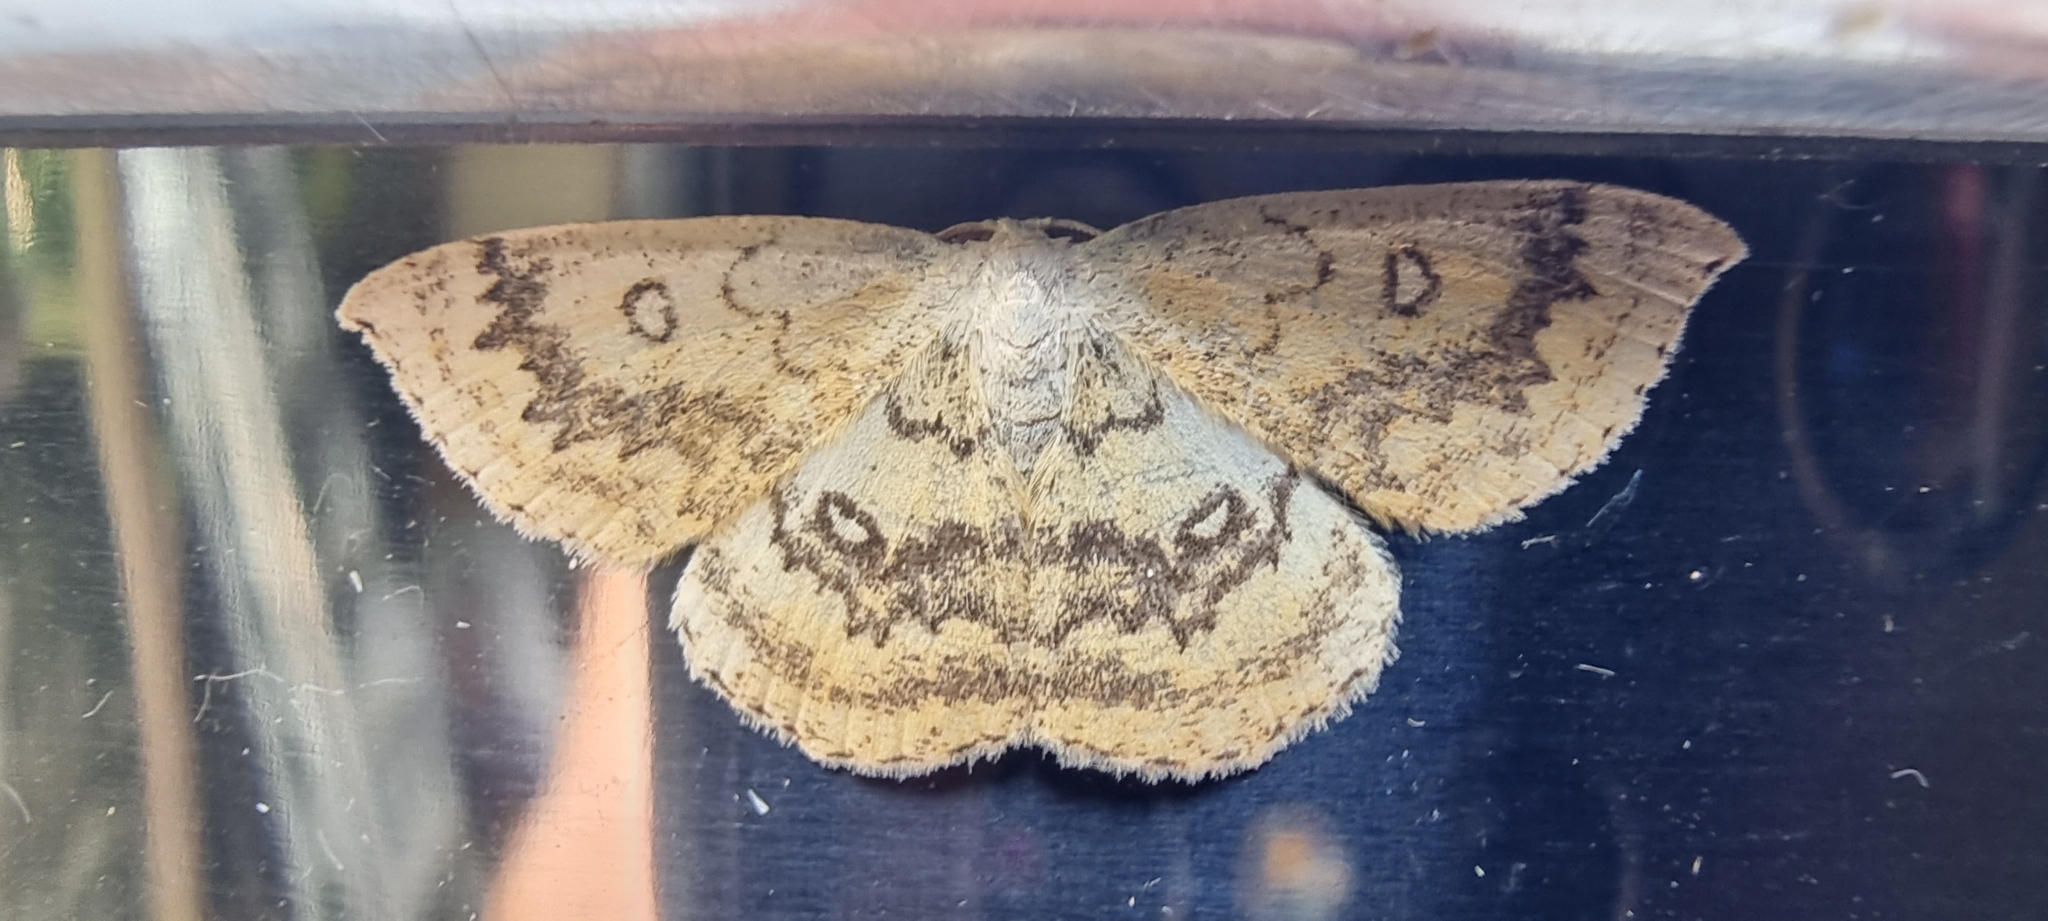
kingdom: Animalia
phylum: Arthropoda
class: Insecta
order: Lepidoptera
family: Geometridae
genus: Cyclophora
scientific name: Cyclophora annularia
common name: Mocha
